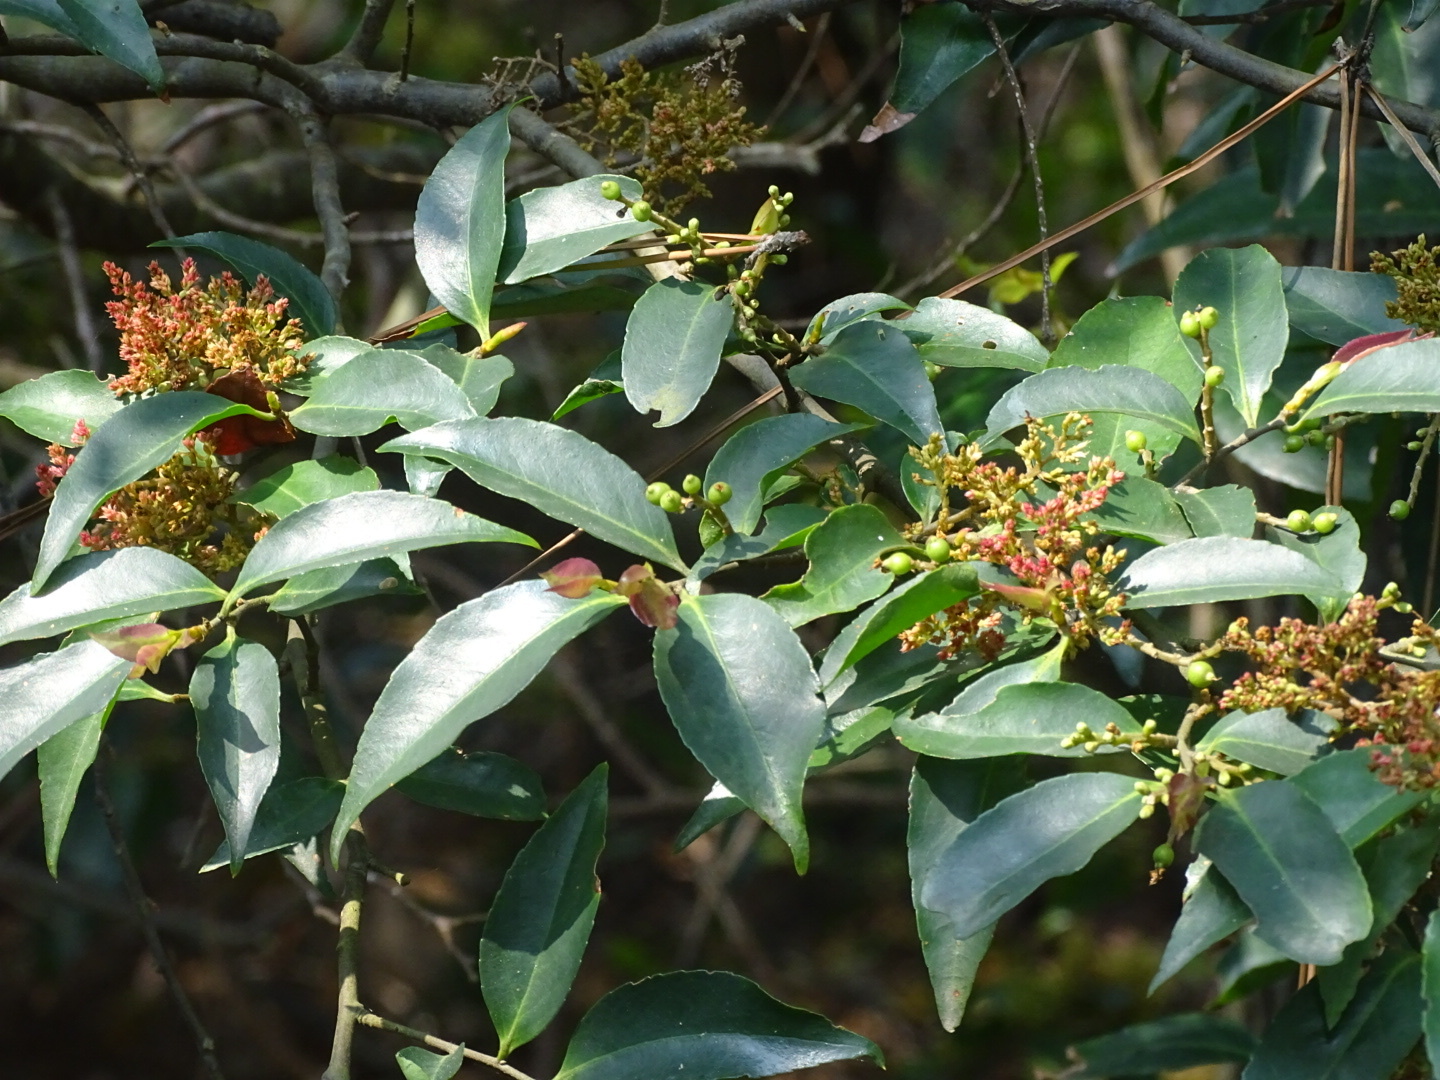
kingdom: Plantae
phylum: Tracheophyta
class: Magnoliopsida
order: Ericales
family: Symplocaceae
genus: Symplocos
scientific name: Symplocos lancifolia
